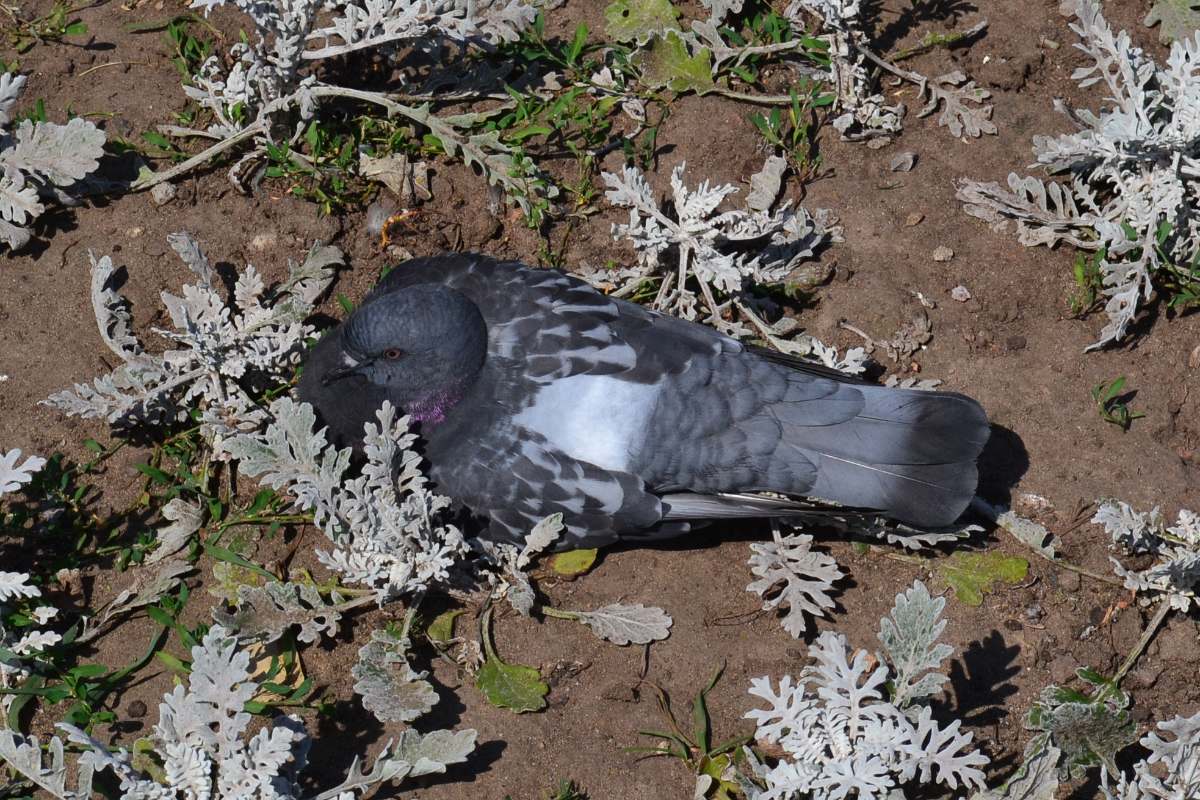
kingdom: Animalia
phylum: Chordata
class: Aves
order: Columbiformes
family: Columbidae
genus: Columba
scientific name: Columba livia
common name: Rock pigeon
